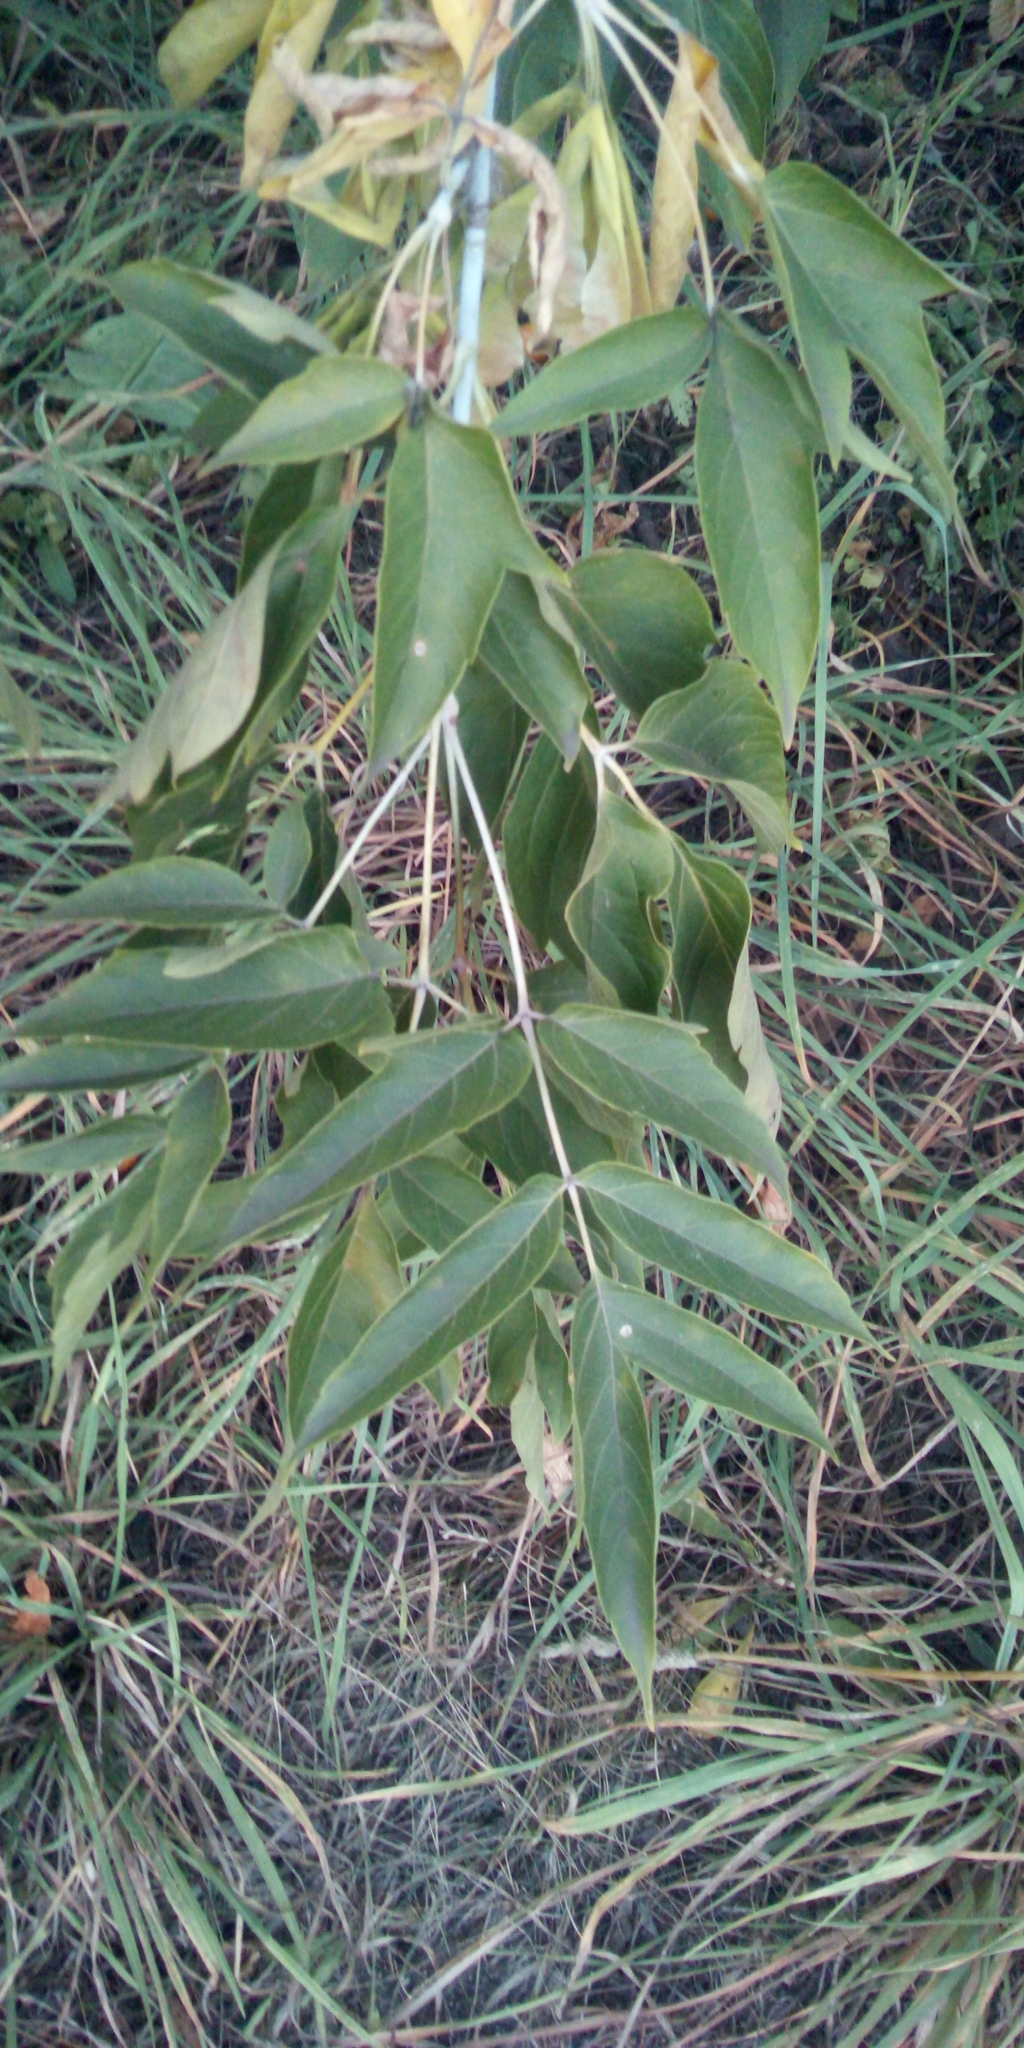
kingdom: Plantae
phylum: Tracheophyta
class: Magnoliopsida
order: Sapindales
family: Sapindaceae
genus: Acer
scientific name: Acer negundo
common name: Ashleaf maple
